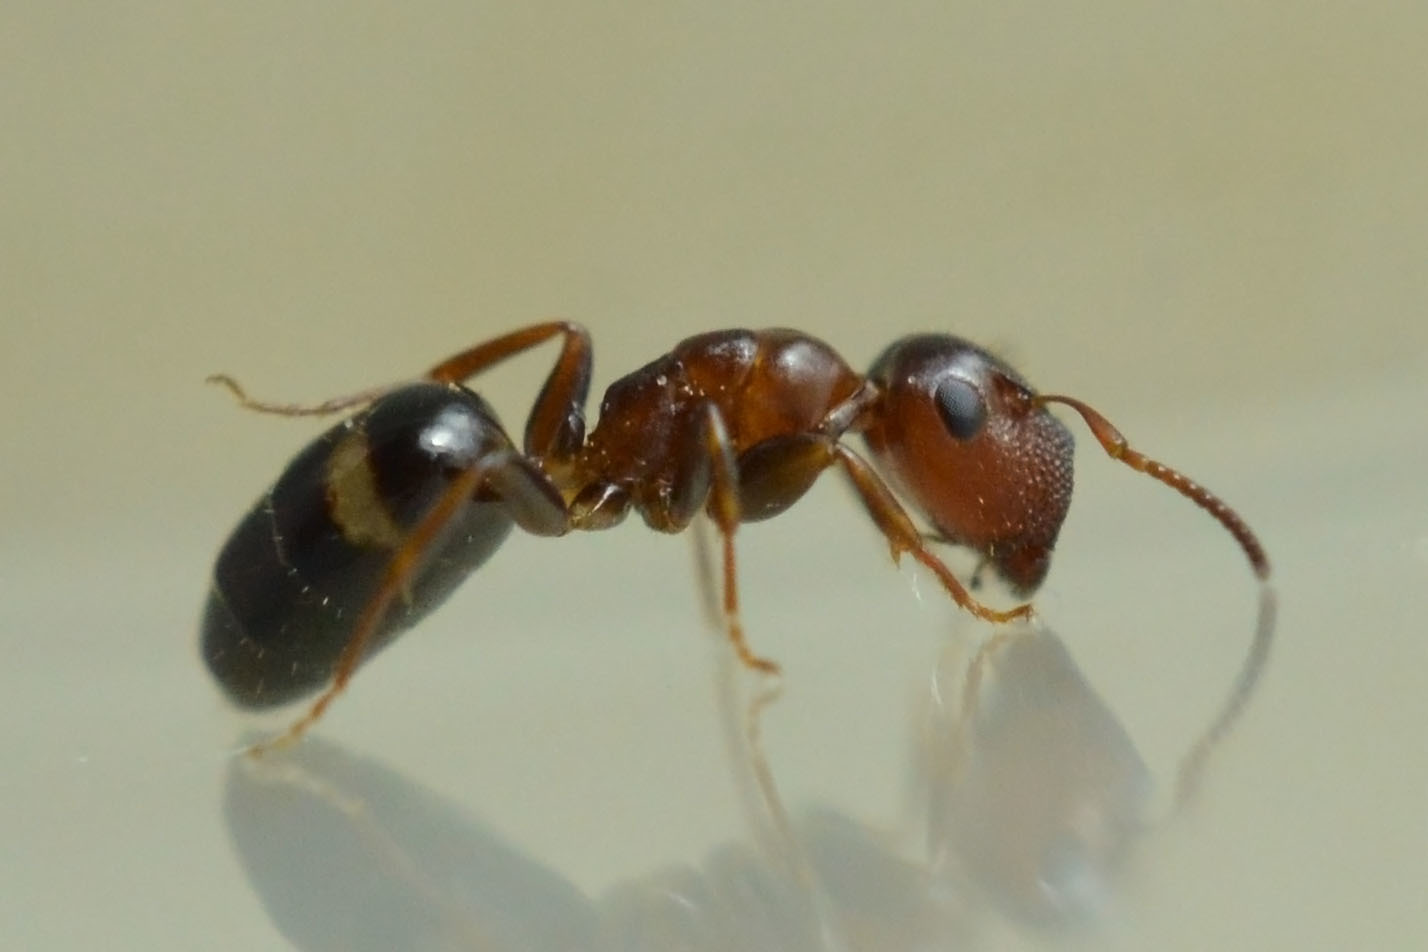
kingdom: Animalia
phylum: Arthropoda
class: Insecta
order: Hymenoptera
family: Formicidae
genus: Camponotus
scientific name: Camponotus truncatus
